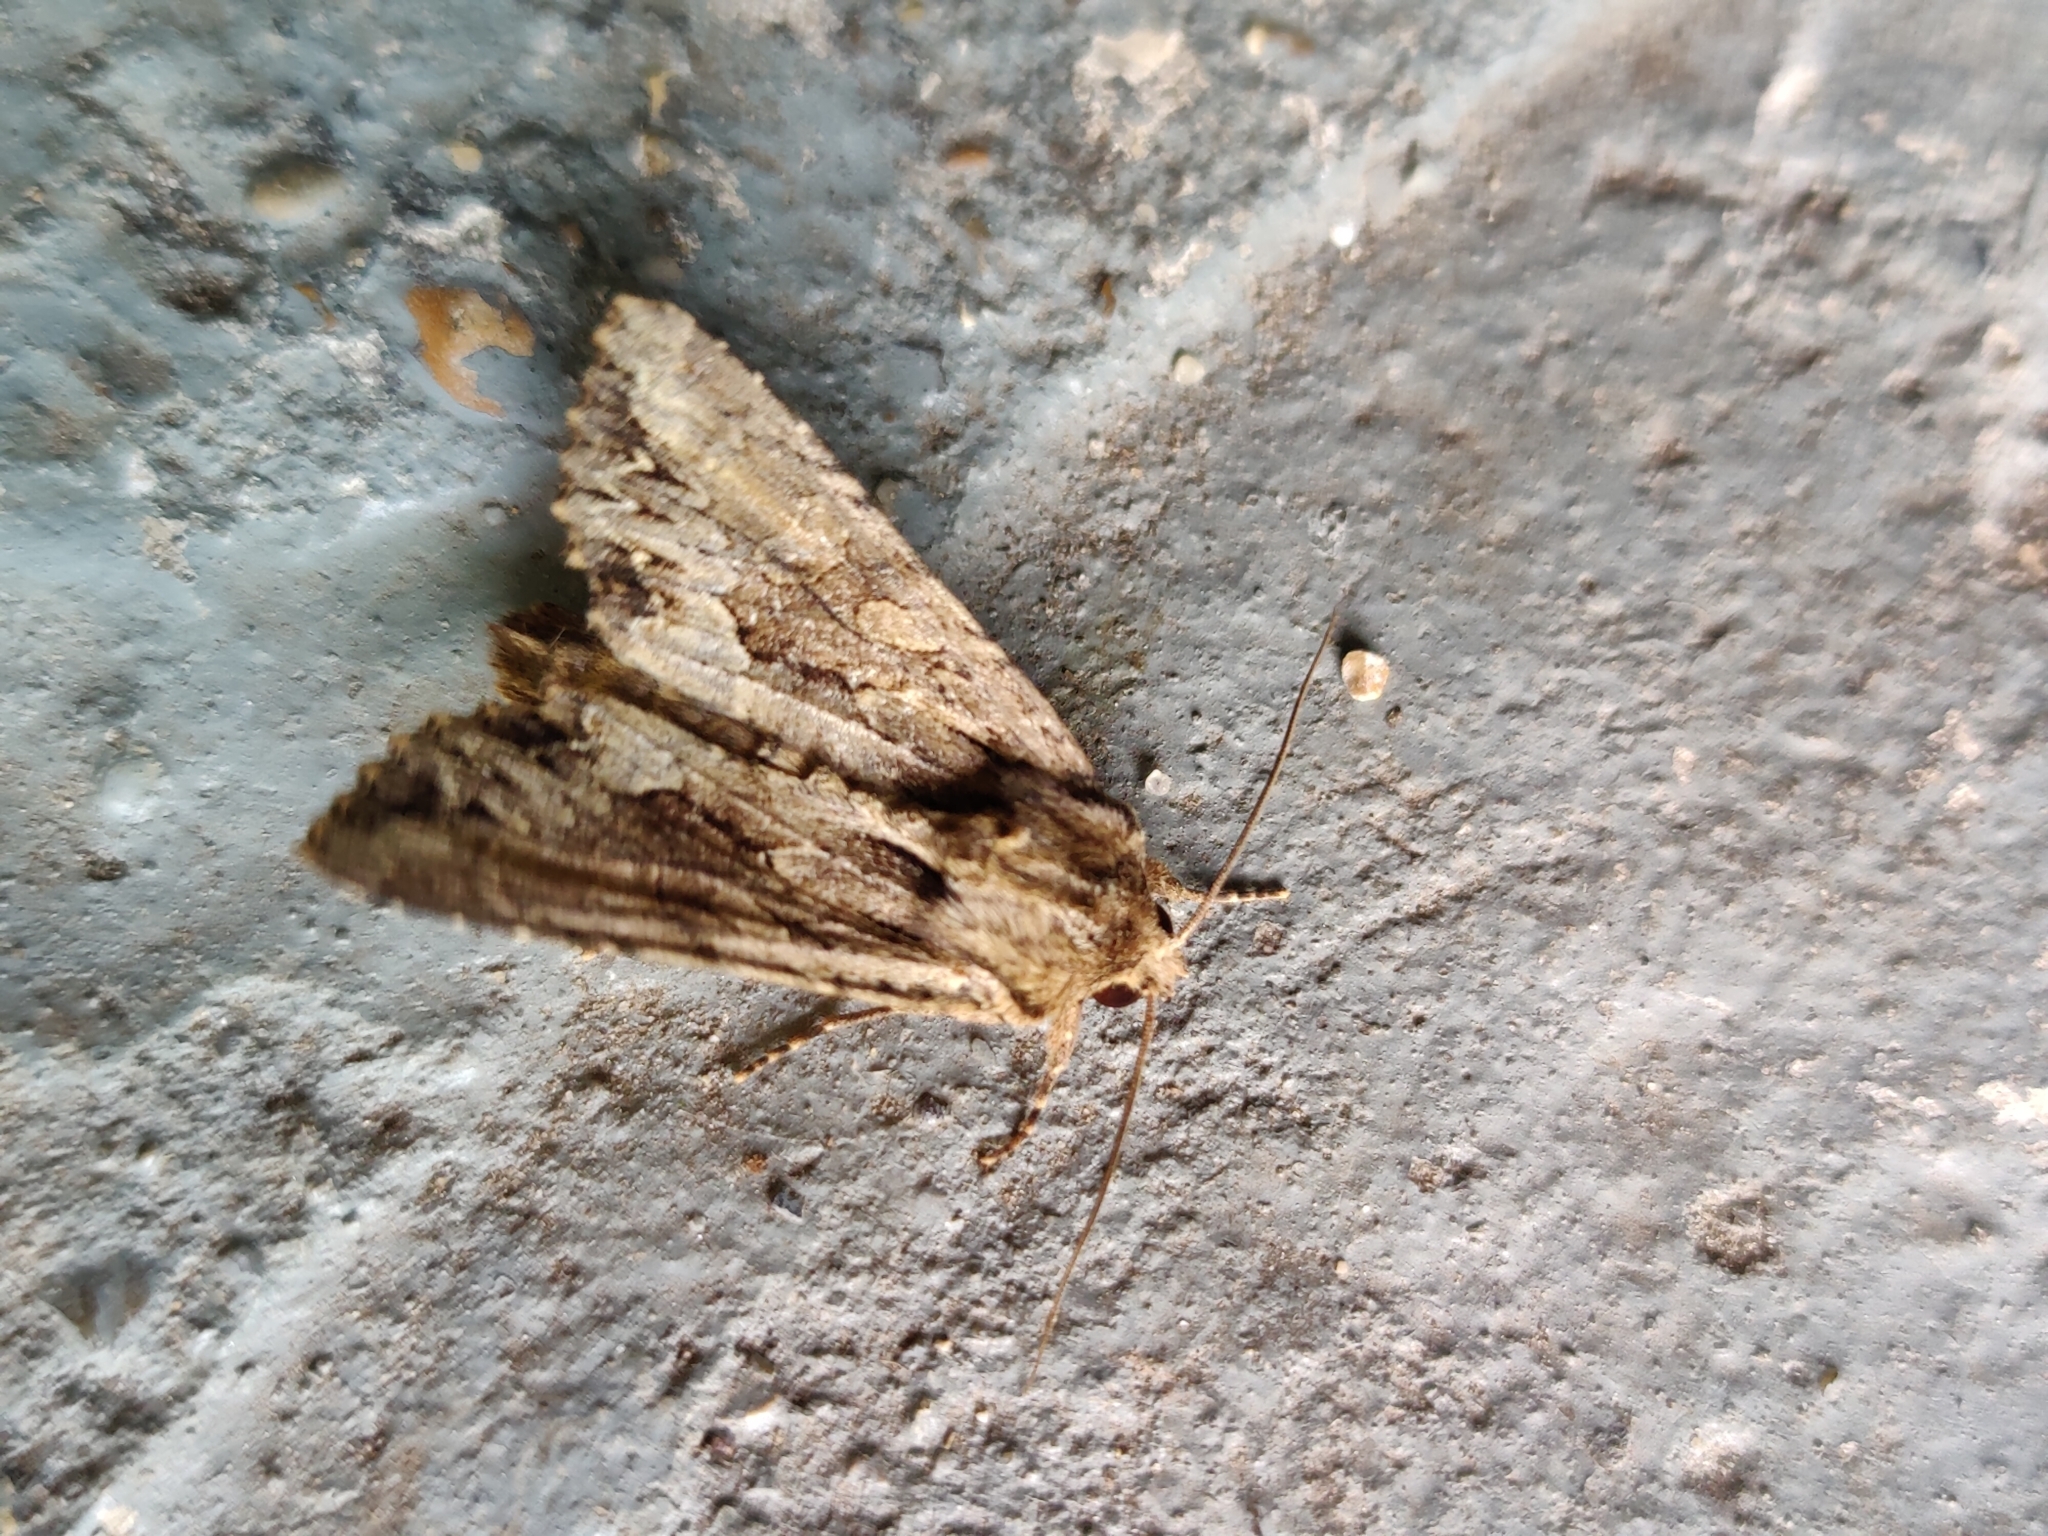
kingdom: Animalia
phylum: Arthropoda
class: Insecta
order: Lepidoptera
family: Noctuidae
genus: Apamea
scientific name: Apamea monoglypha
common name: Dark arches
